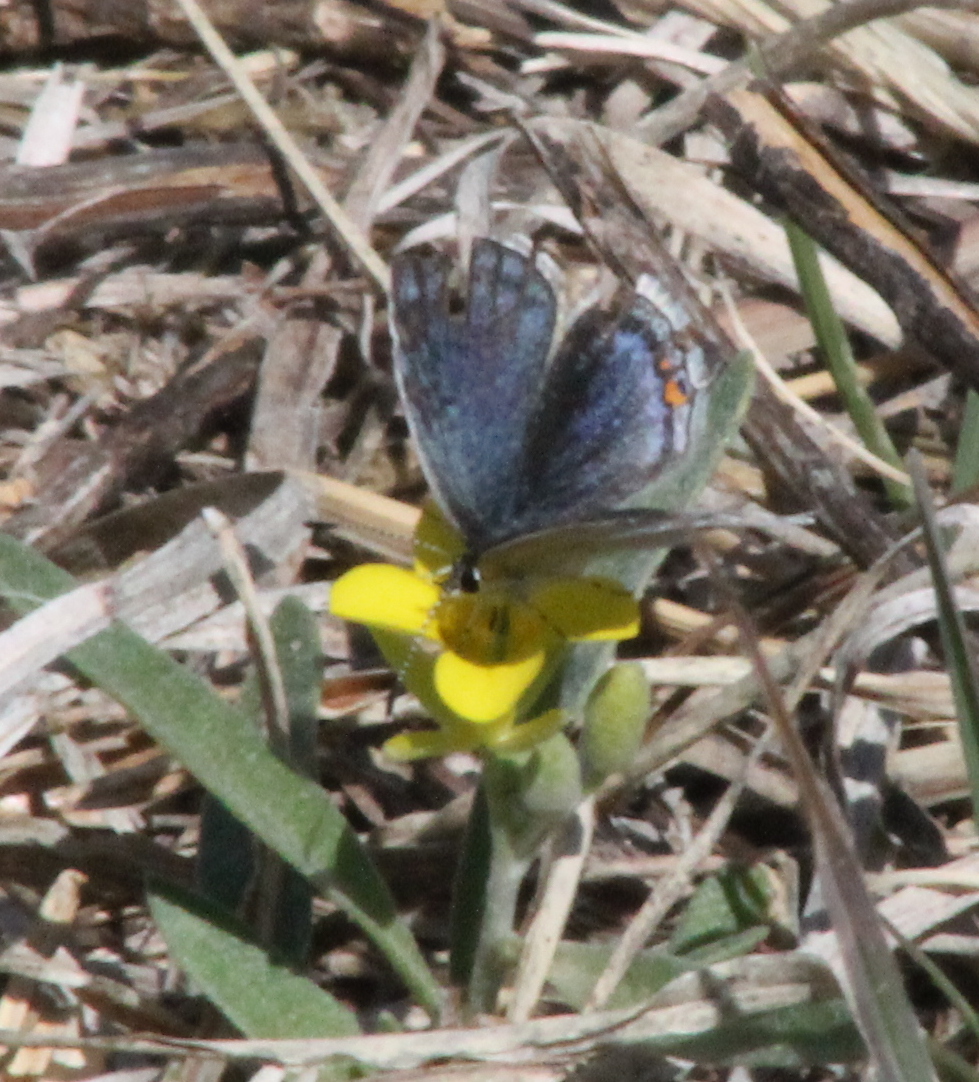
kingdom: Animalia
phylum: Arthropoda
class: Insecta
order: Lepidoptera
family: Lycaenidae
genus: Elkalyce
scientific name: Elkalyce comyntas
